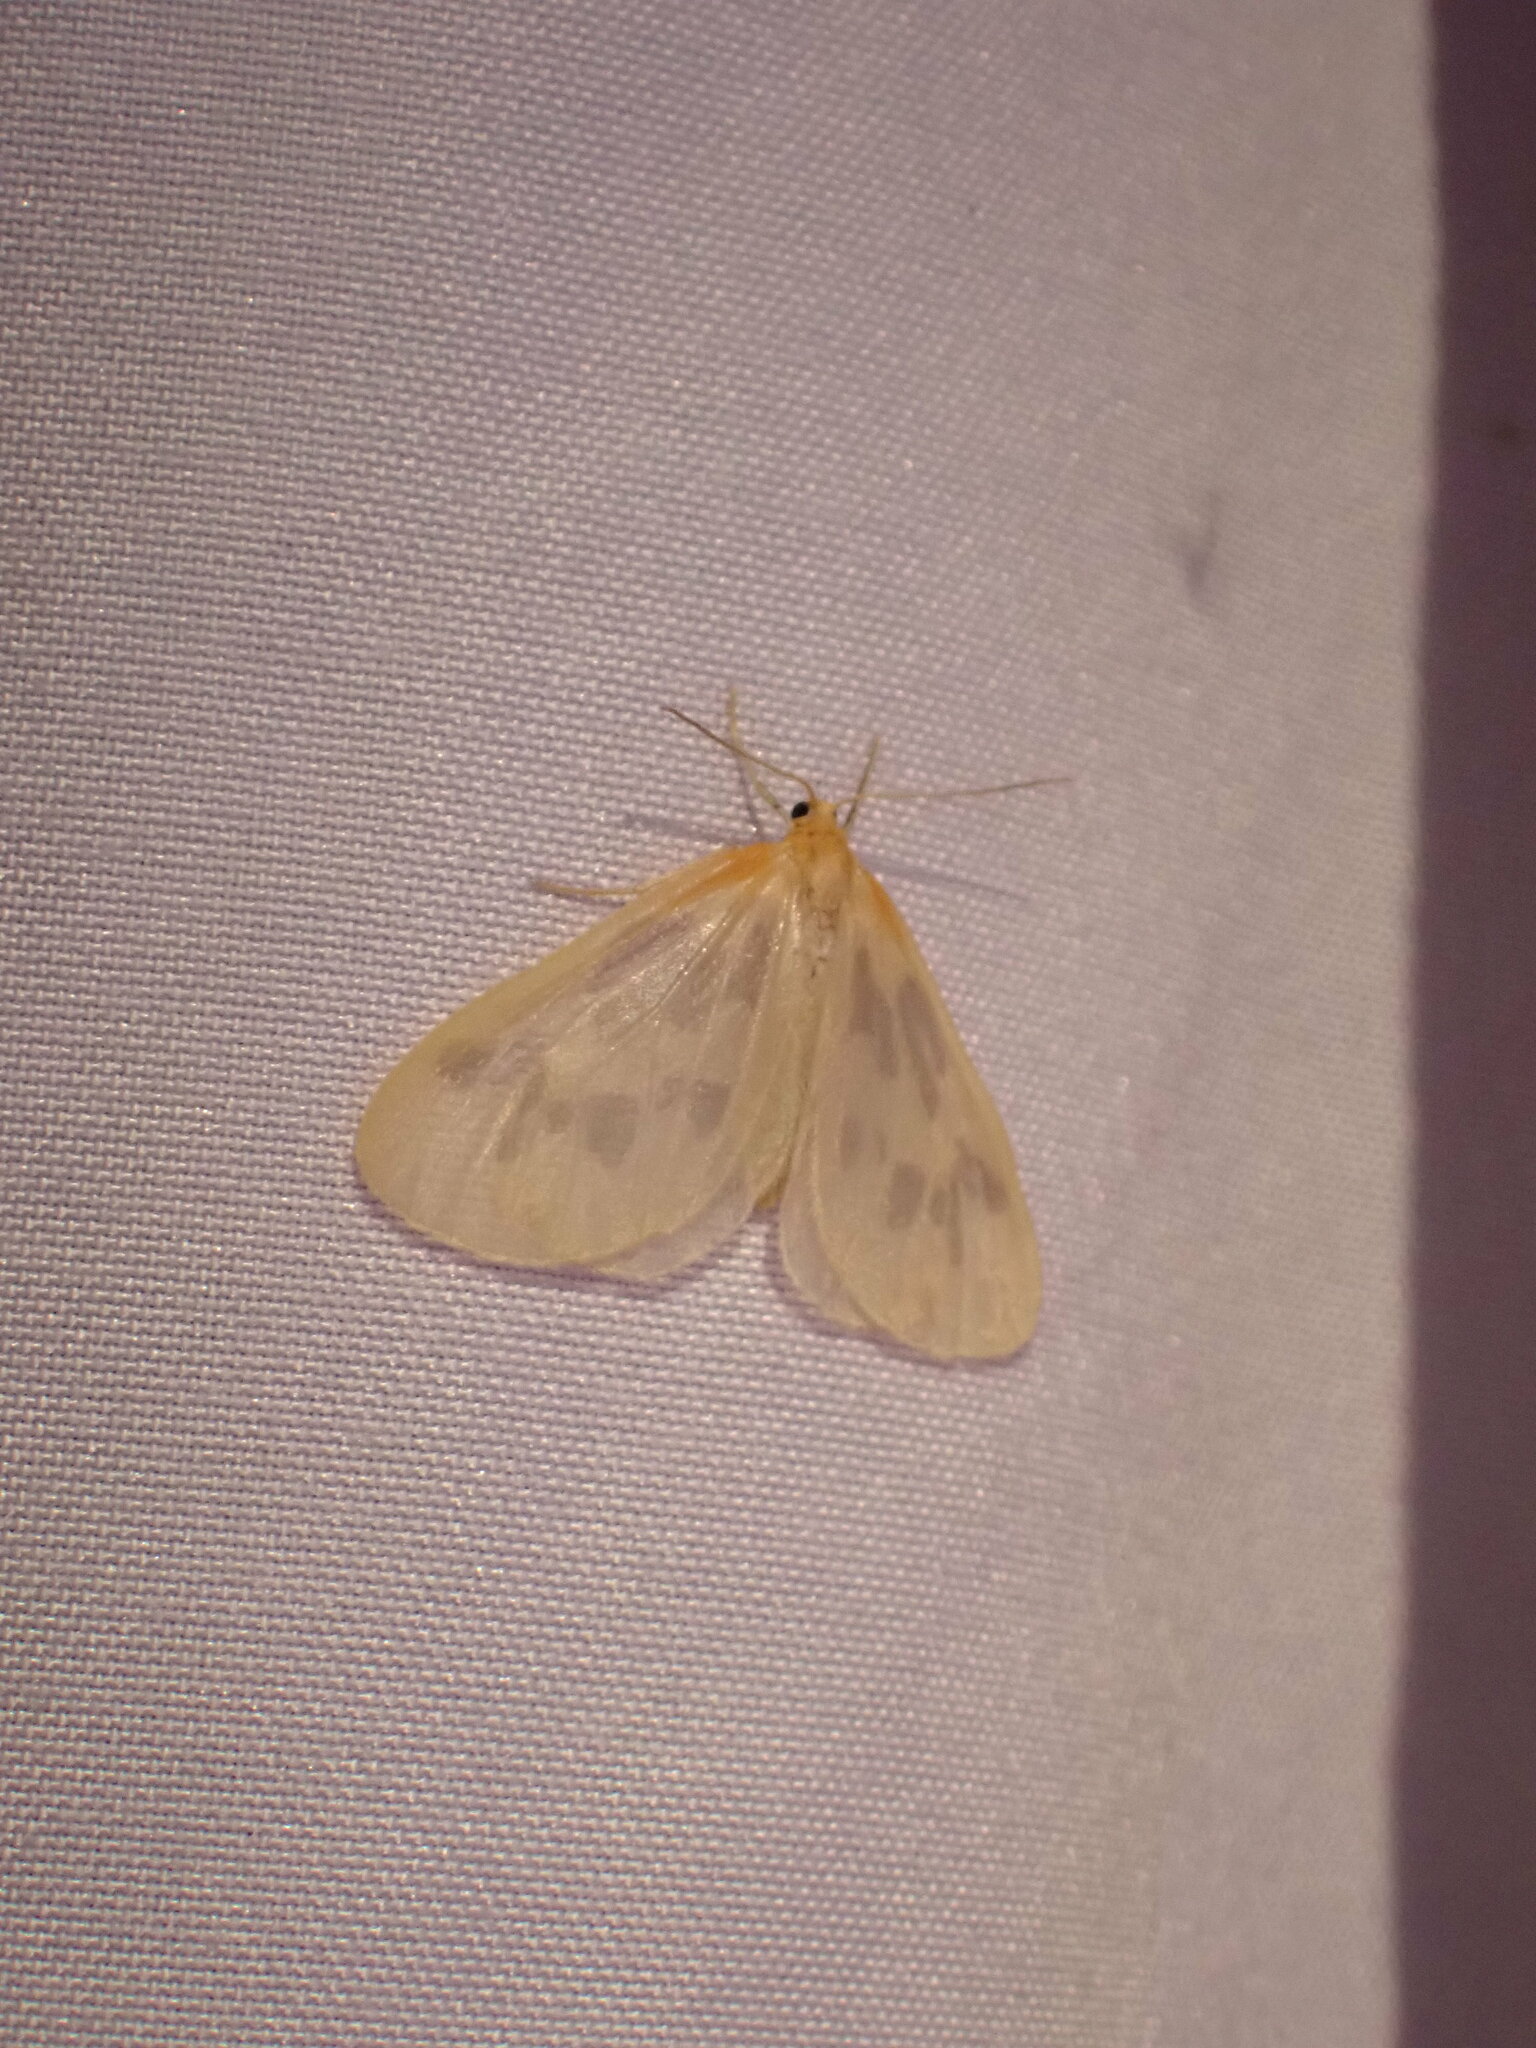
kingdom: Animalia
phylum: Arthropoda
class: Insecta
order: Lepidoptera
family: Geometridae
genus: Eubaphe
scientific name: Eubaphe mendica
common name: Beggar
